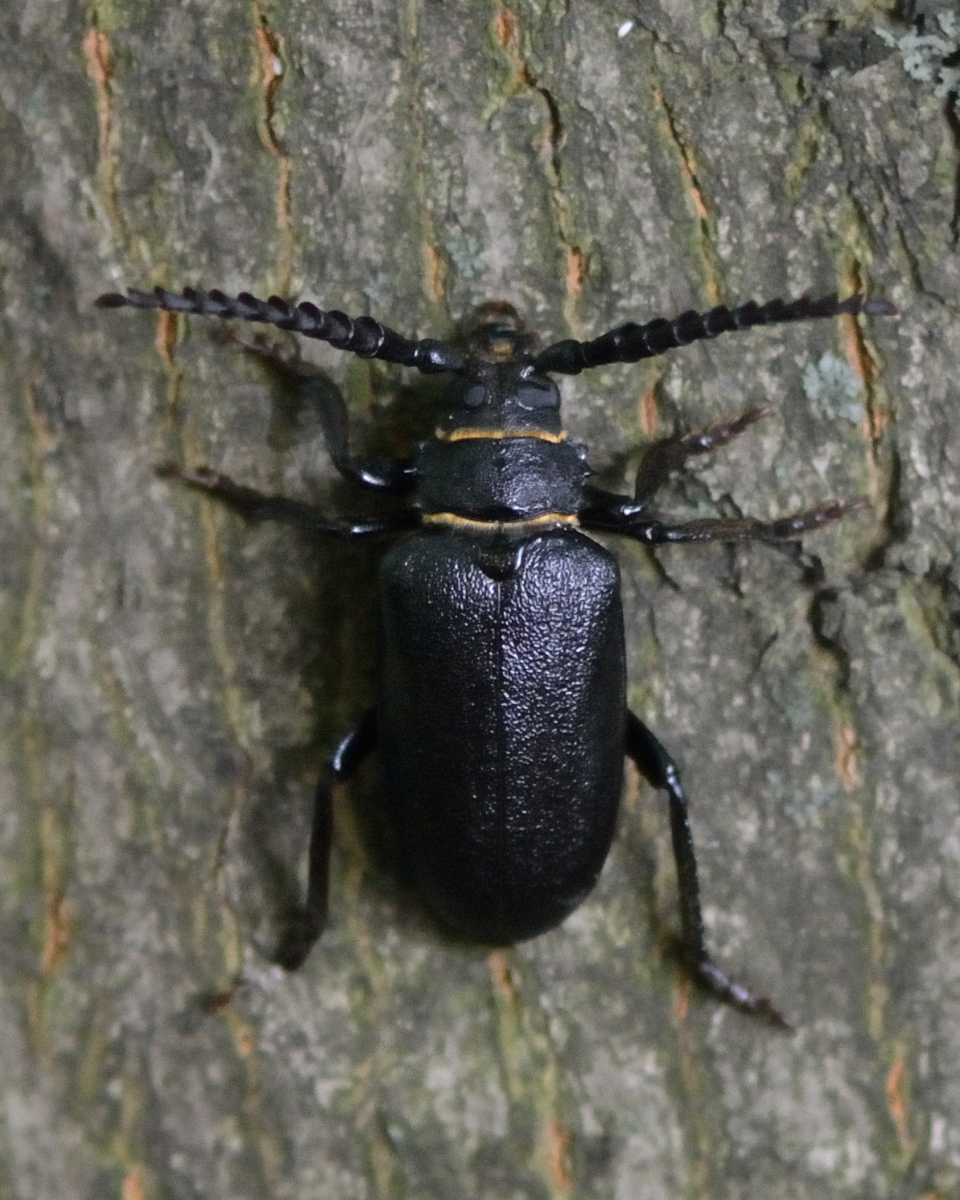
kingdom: Animalia
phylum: Arthropoda
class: Insecta
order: Coleoptera
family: Cerambycidae
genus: Prionus
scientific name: Prionus coriarius
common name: Tanner beetle
